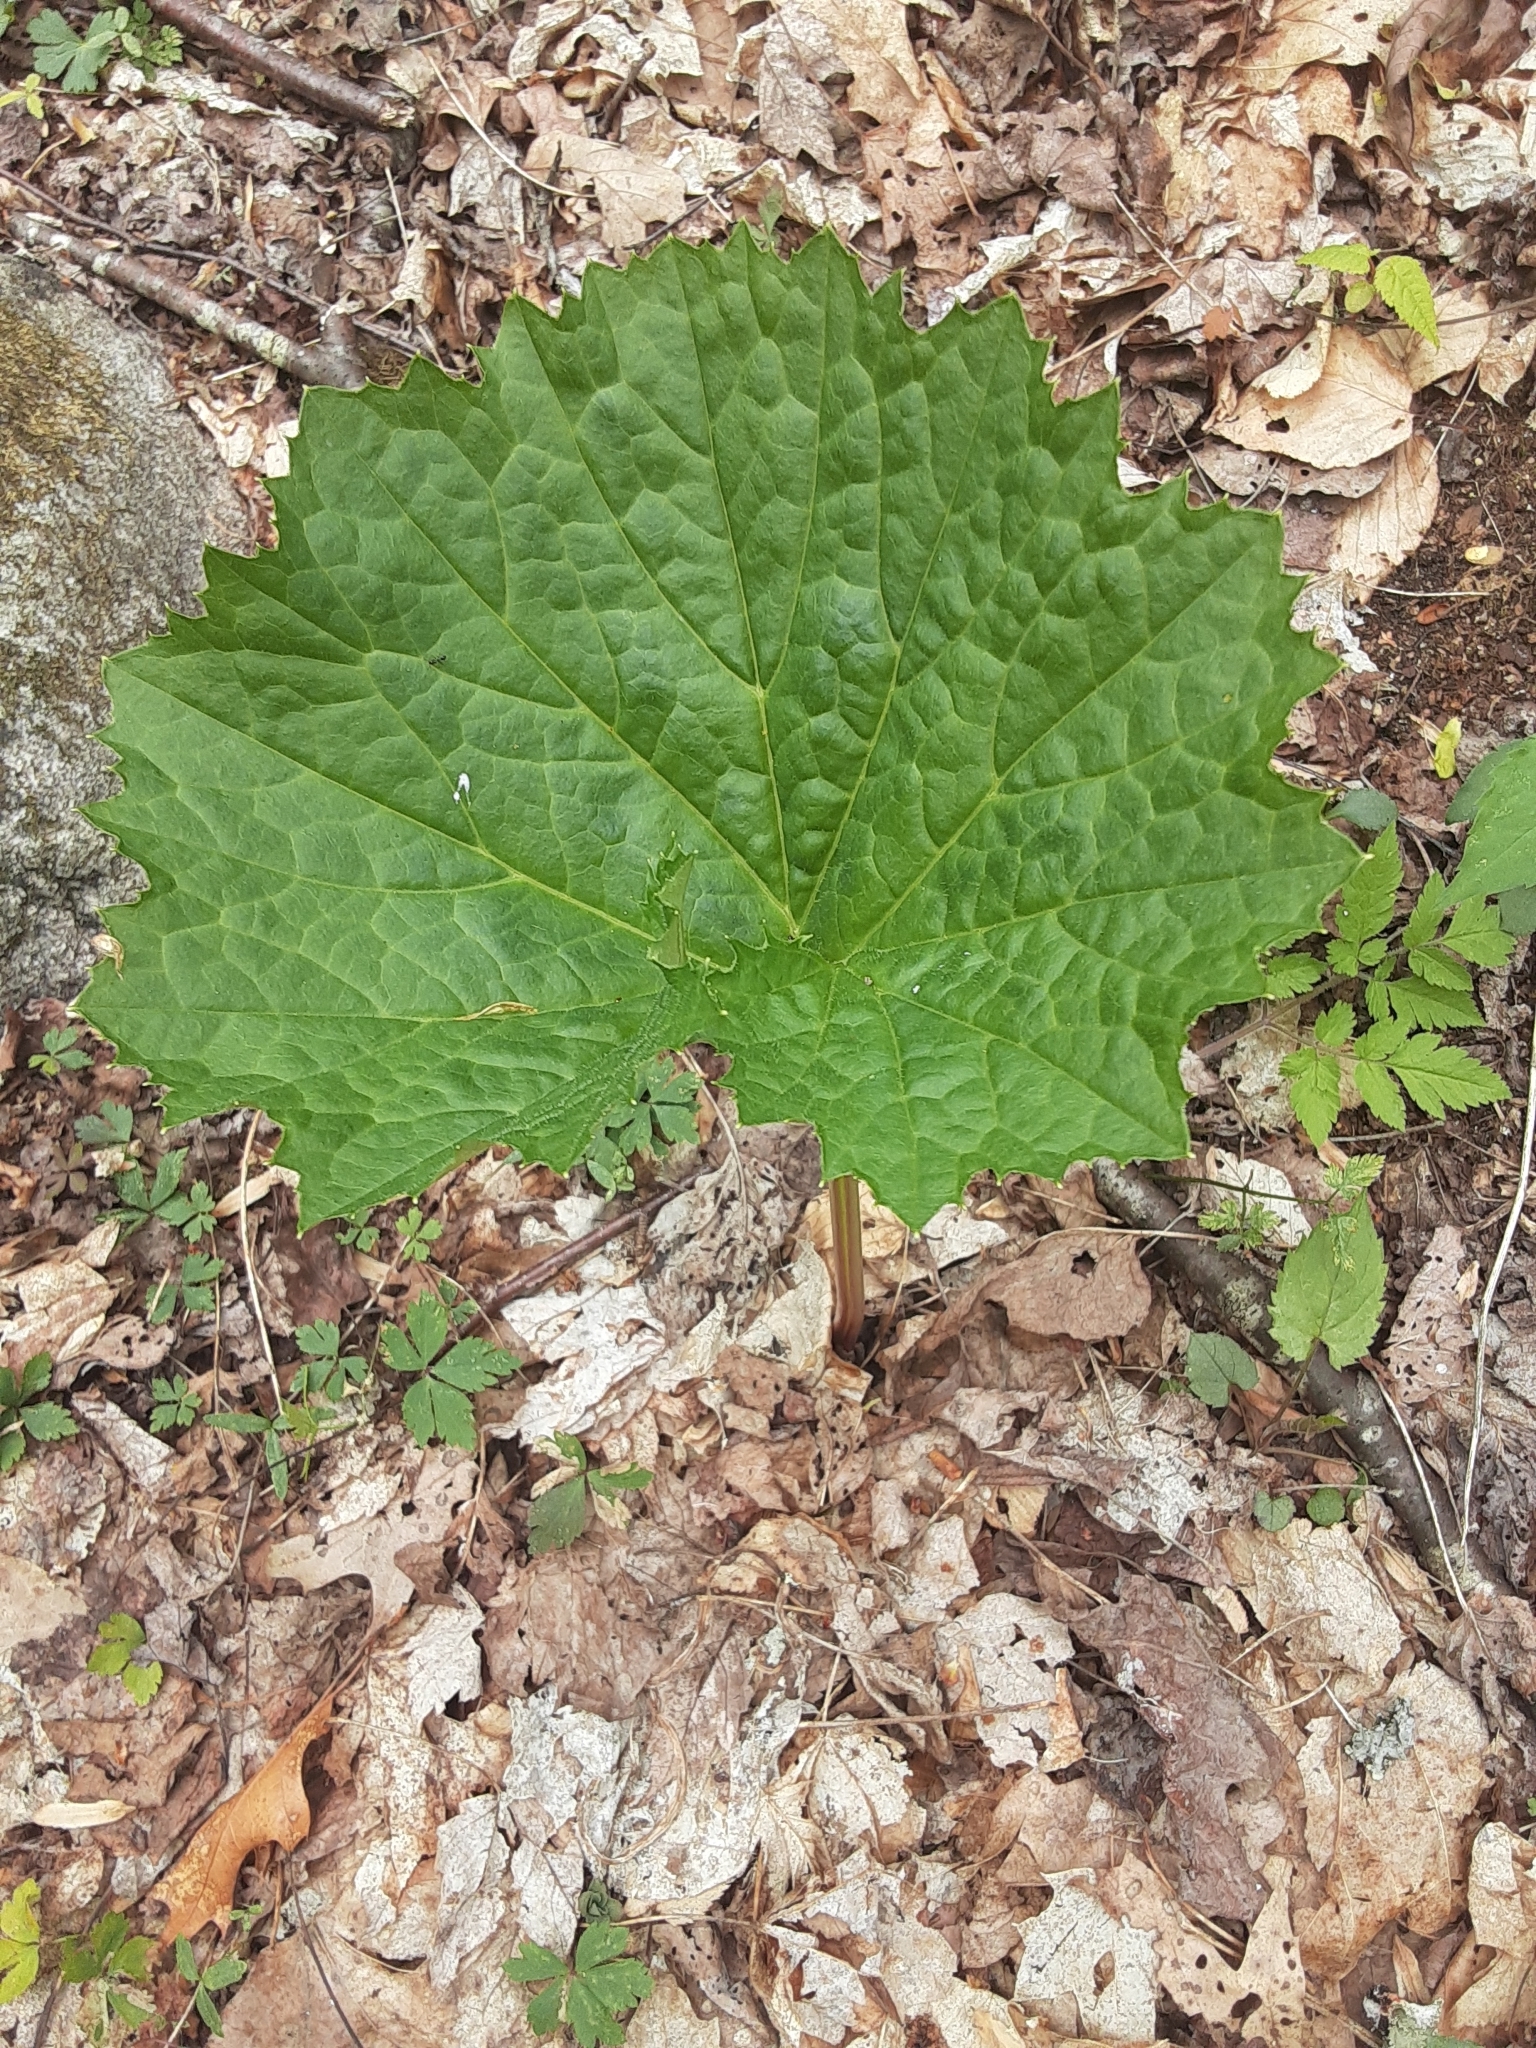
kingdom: Plantae
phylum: Tracheophyta
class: Magnoliopsida
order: Ranunculales
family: Berberidaceae
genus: Diphylleia
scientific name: Diphylleia cymosa
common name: Umbrella-leaf
